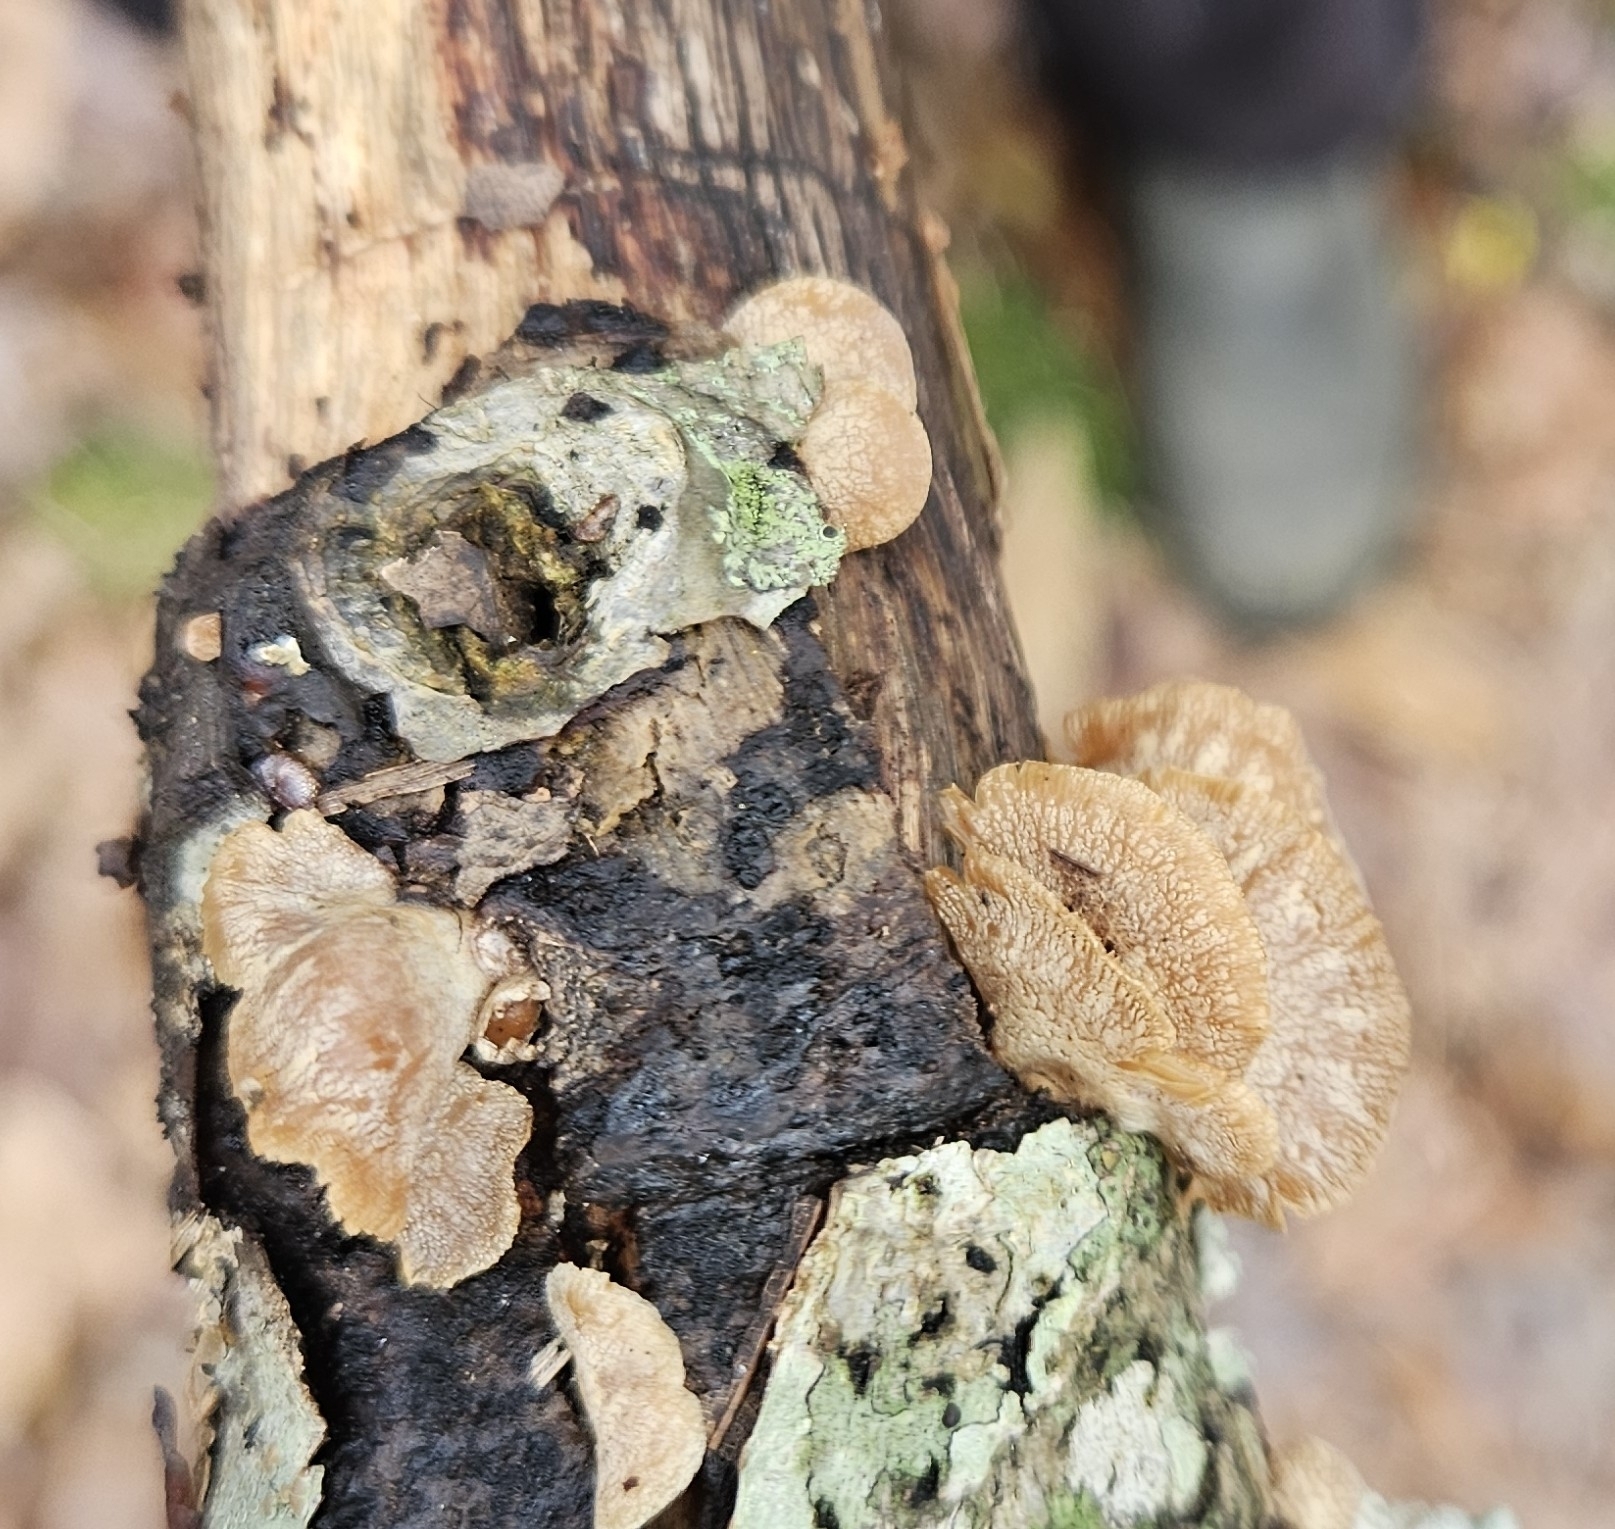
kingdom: Fungi
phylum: Basidiomycota
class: Agaricomycetes
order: Agaricales
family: Mycenaceae
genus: Panellus
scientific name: Panellus stipticus
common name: Bitter oysterling
